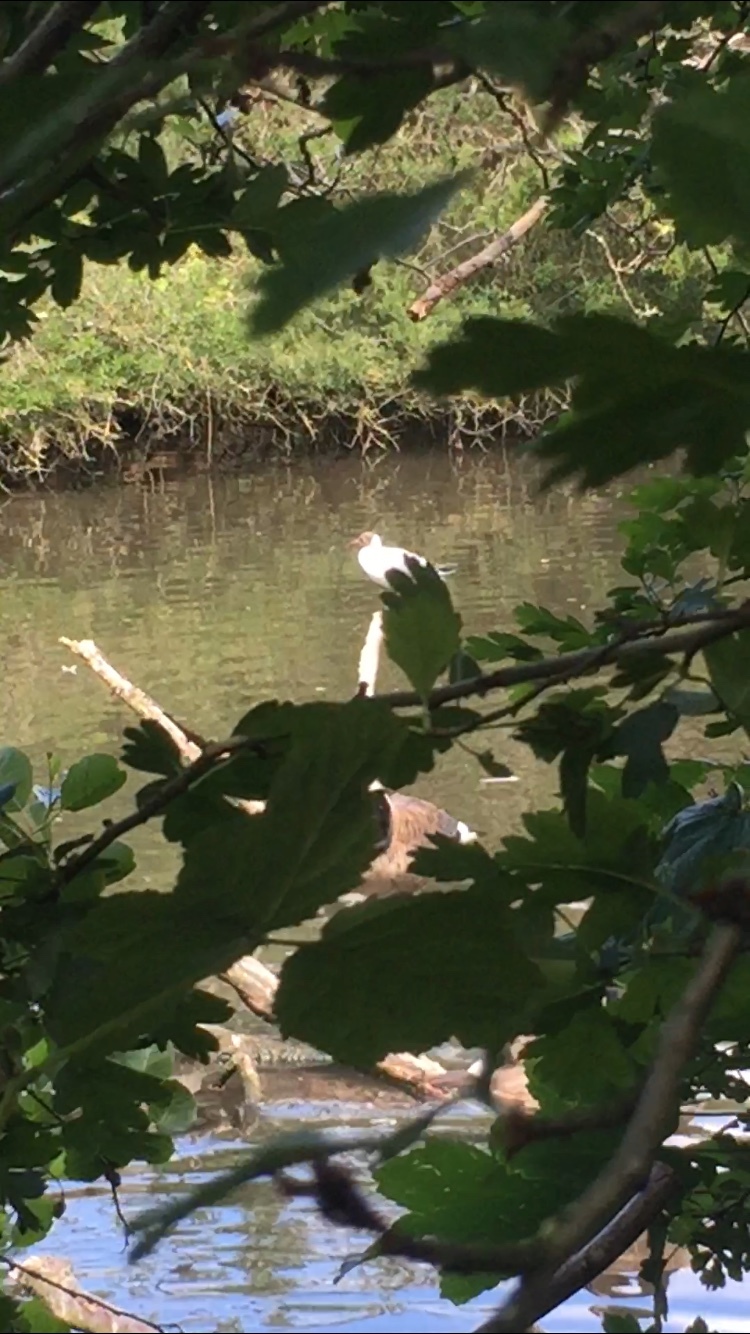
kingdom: Animalia
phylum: Chordata
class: Aves
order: Charadriiformes
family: Laridae
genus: Chroicocephalus
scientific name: Chroicocephalus ridibundus
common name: Black-headed gull
